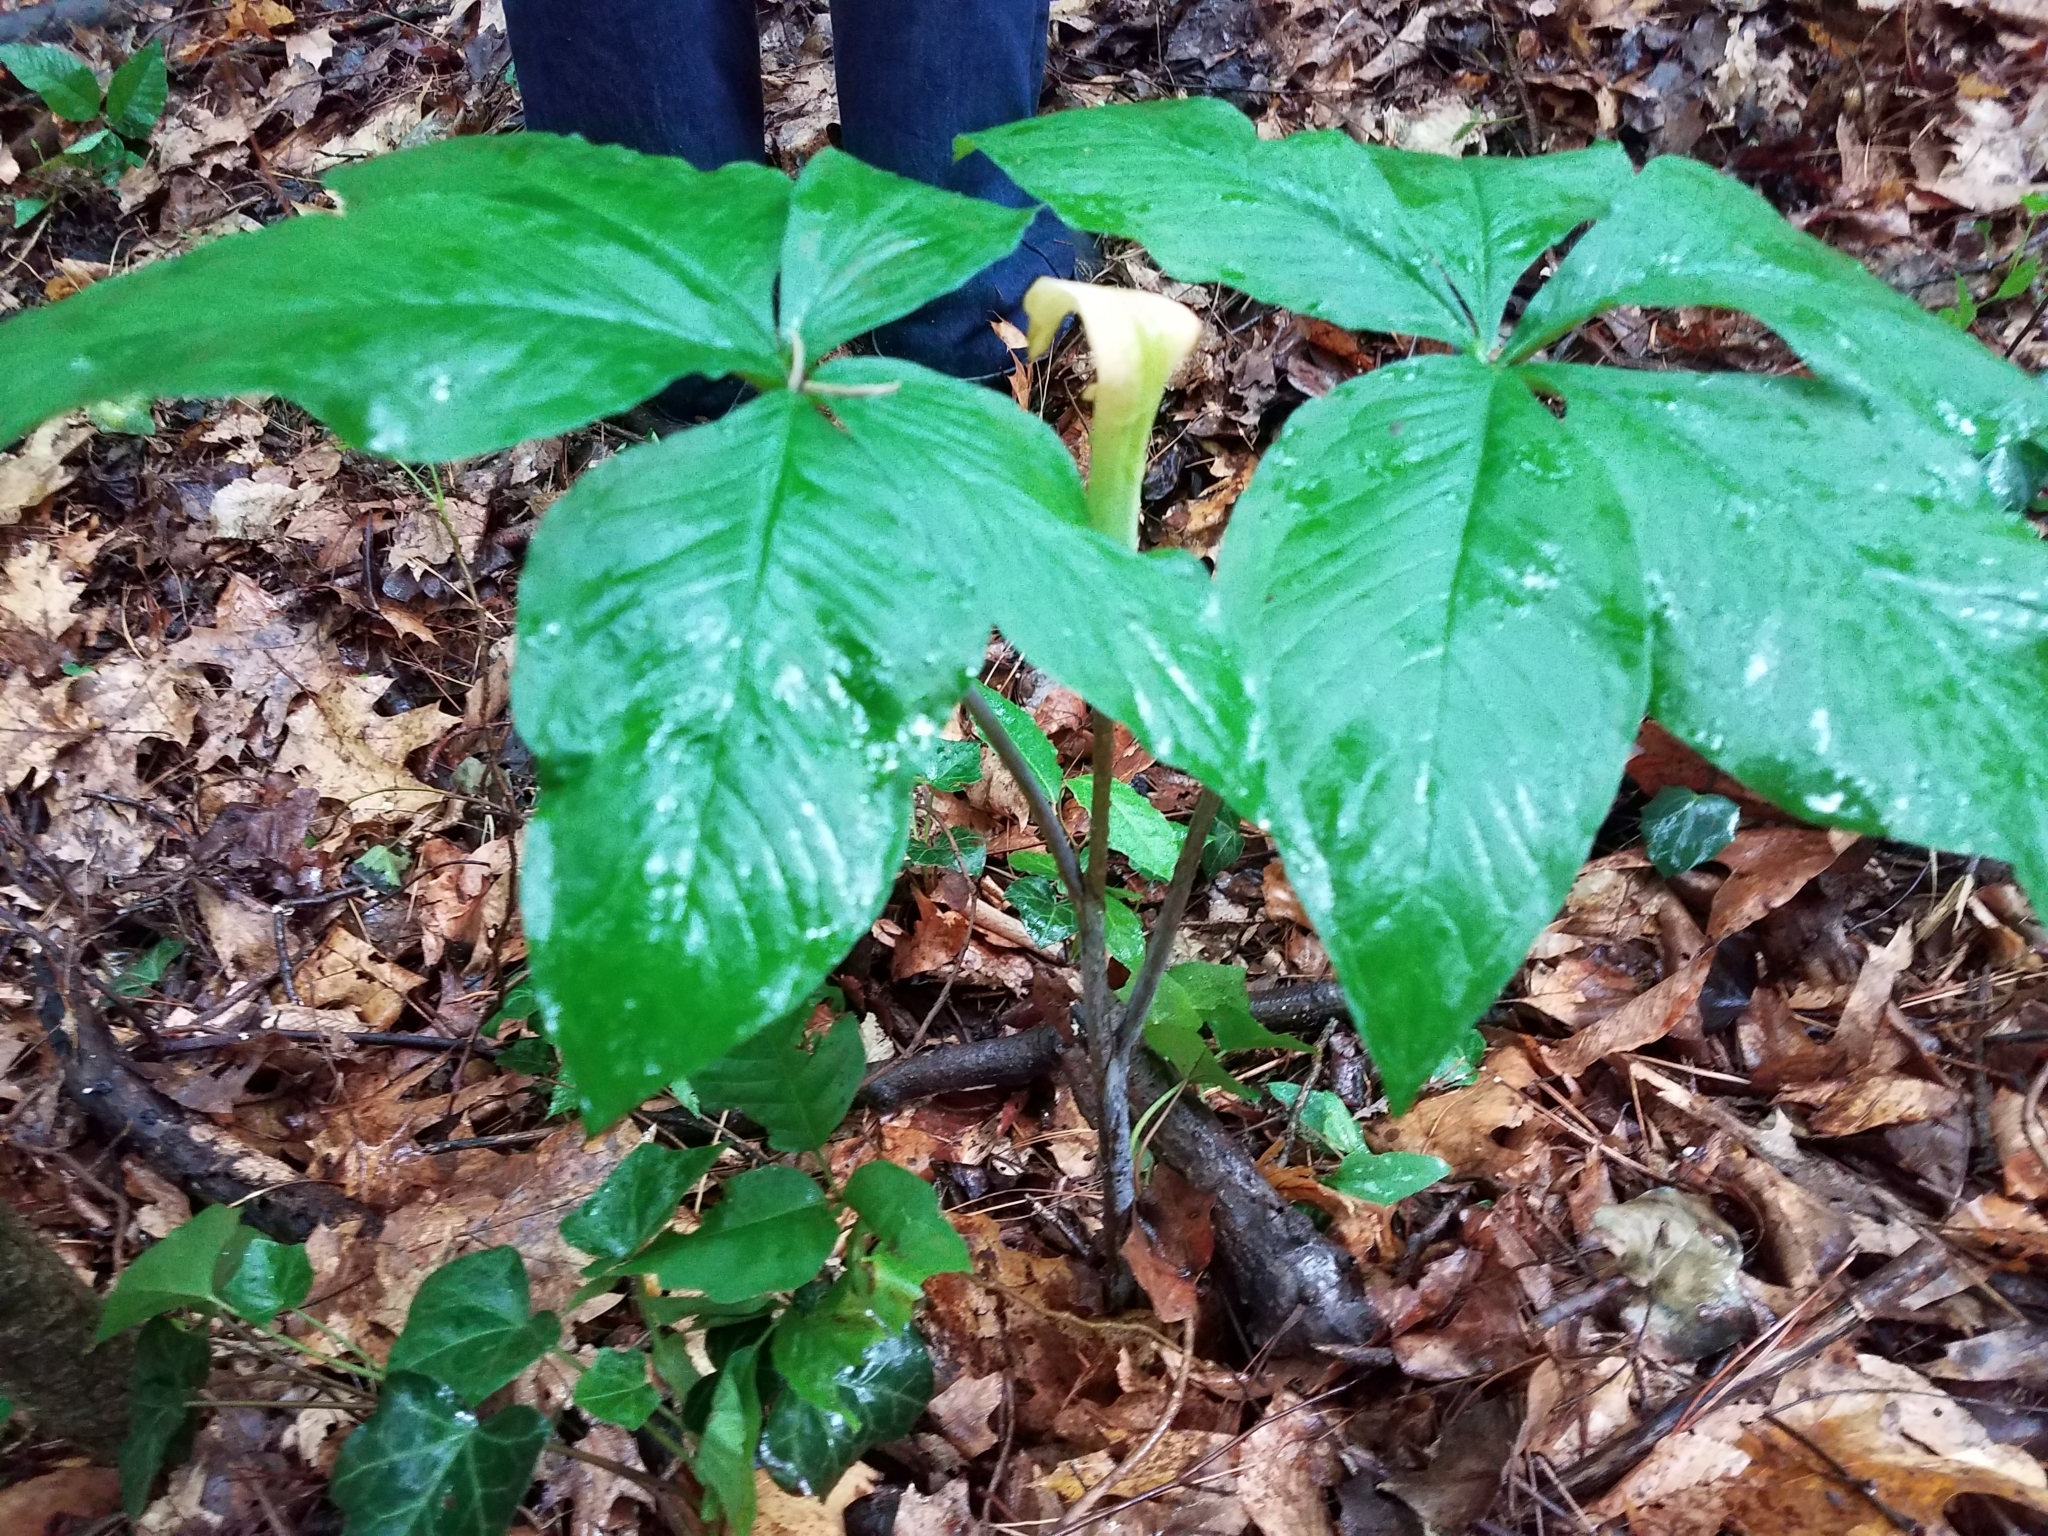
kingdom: Plantae
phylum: Tracheophyta
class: Liliopsida
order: Alismatales
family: Araceae
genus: Arisaema
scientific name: Arisaema quinatum
